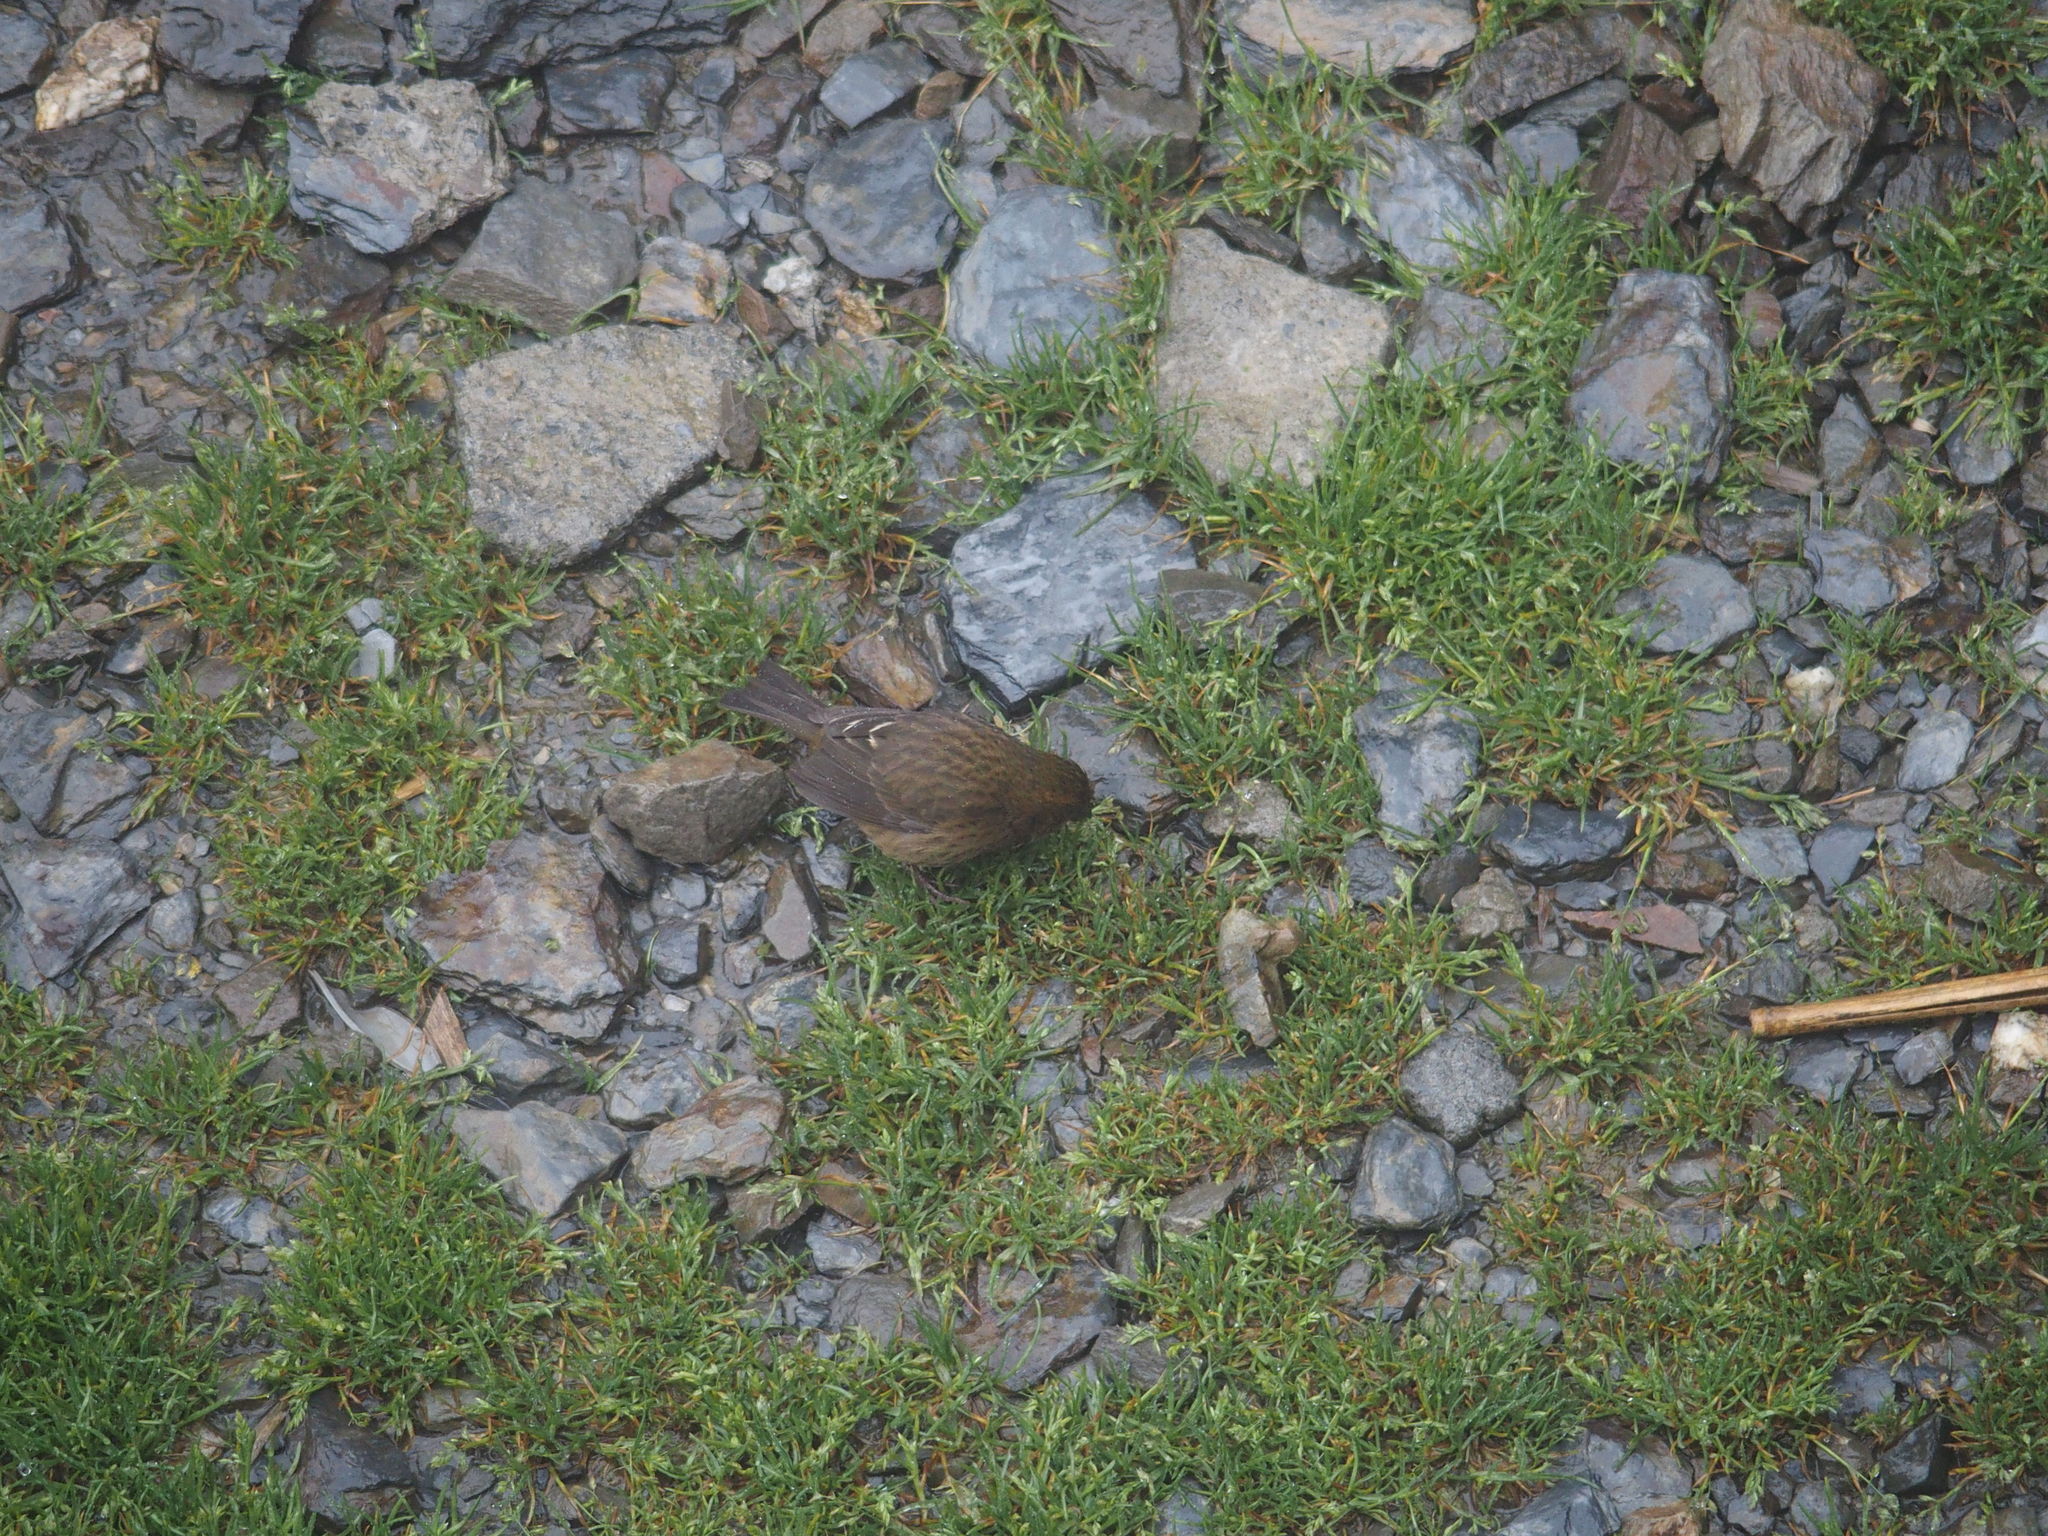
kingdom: Animalia
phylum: Chordata
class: Aves
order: Passeriformes
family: Fringillidae
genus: Carpodacus
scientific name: Carpodacus formosanus
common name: Taiwan rosefinch
